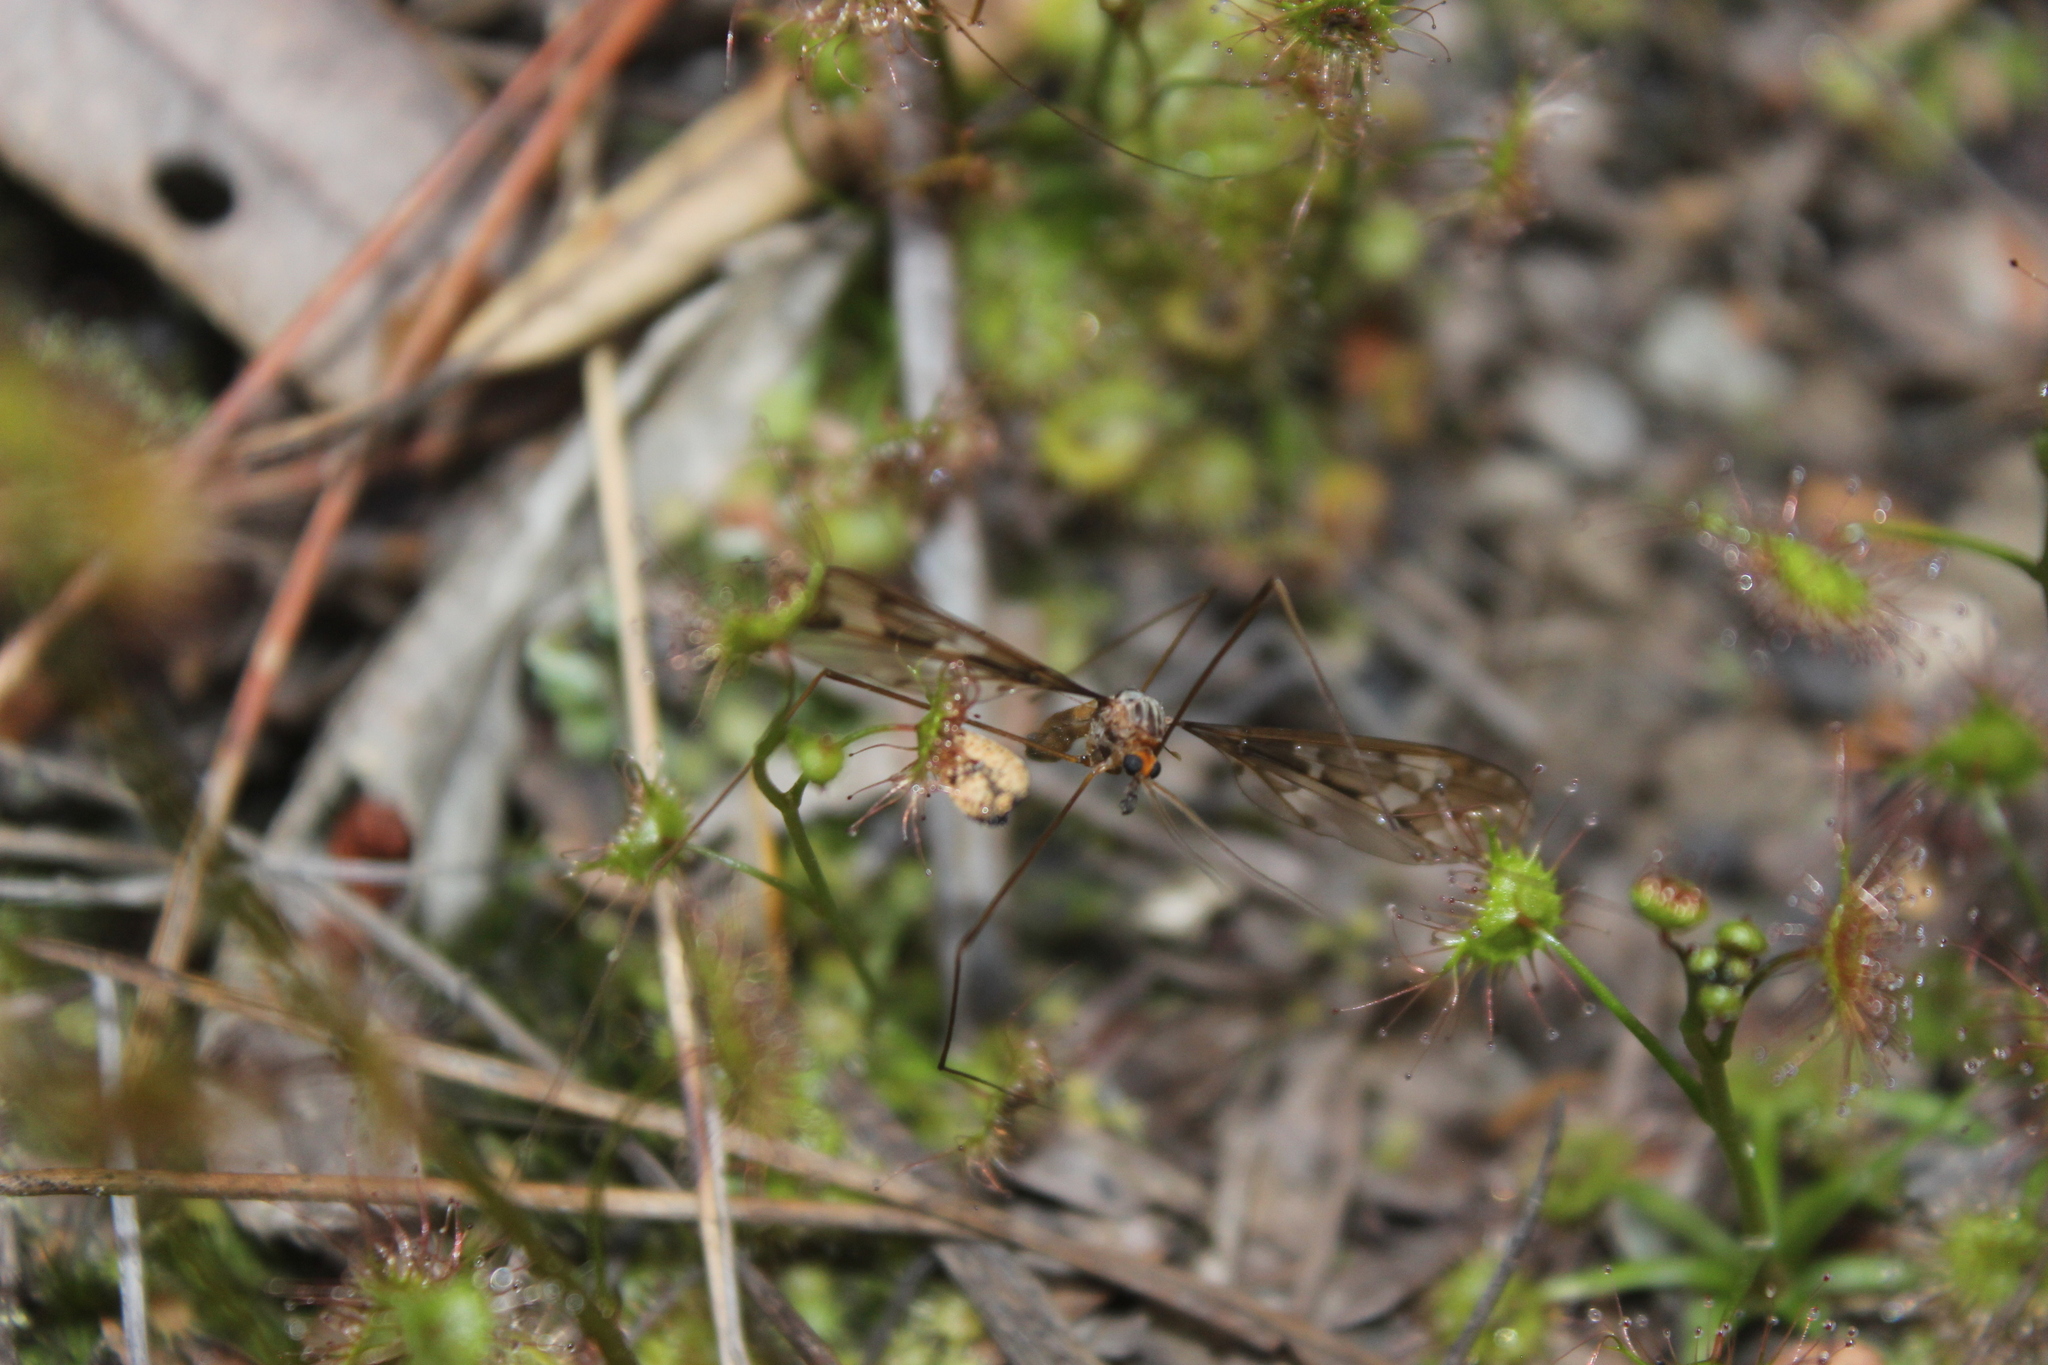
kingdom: Animalia
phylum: Arthropoda
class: Insecta
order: Diptera
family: Tipulidae
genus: Leptotarsus
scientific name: Leptotarsus binotatus
